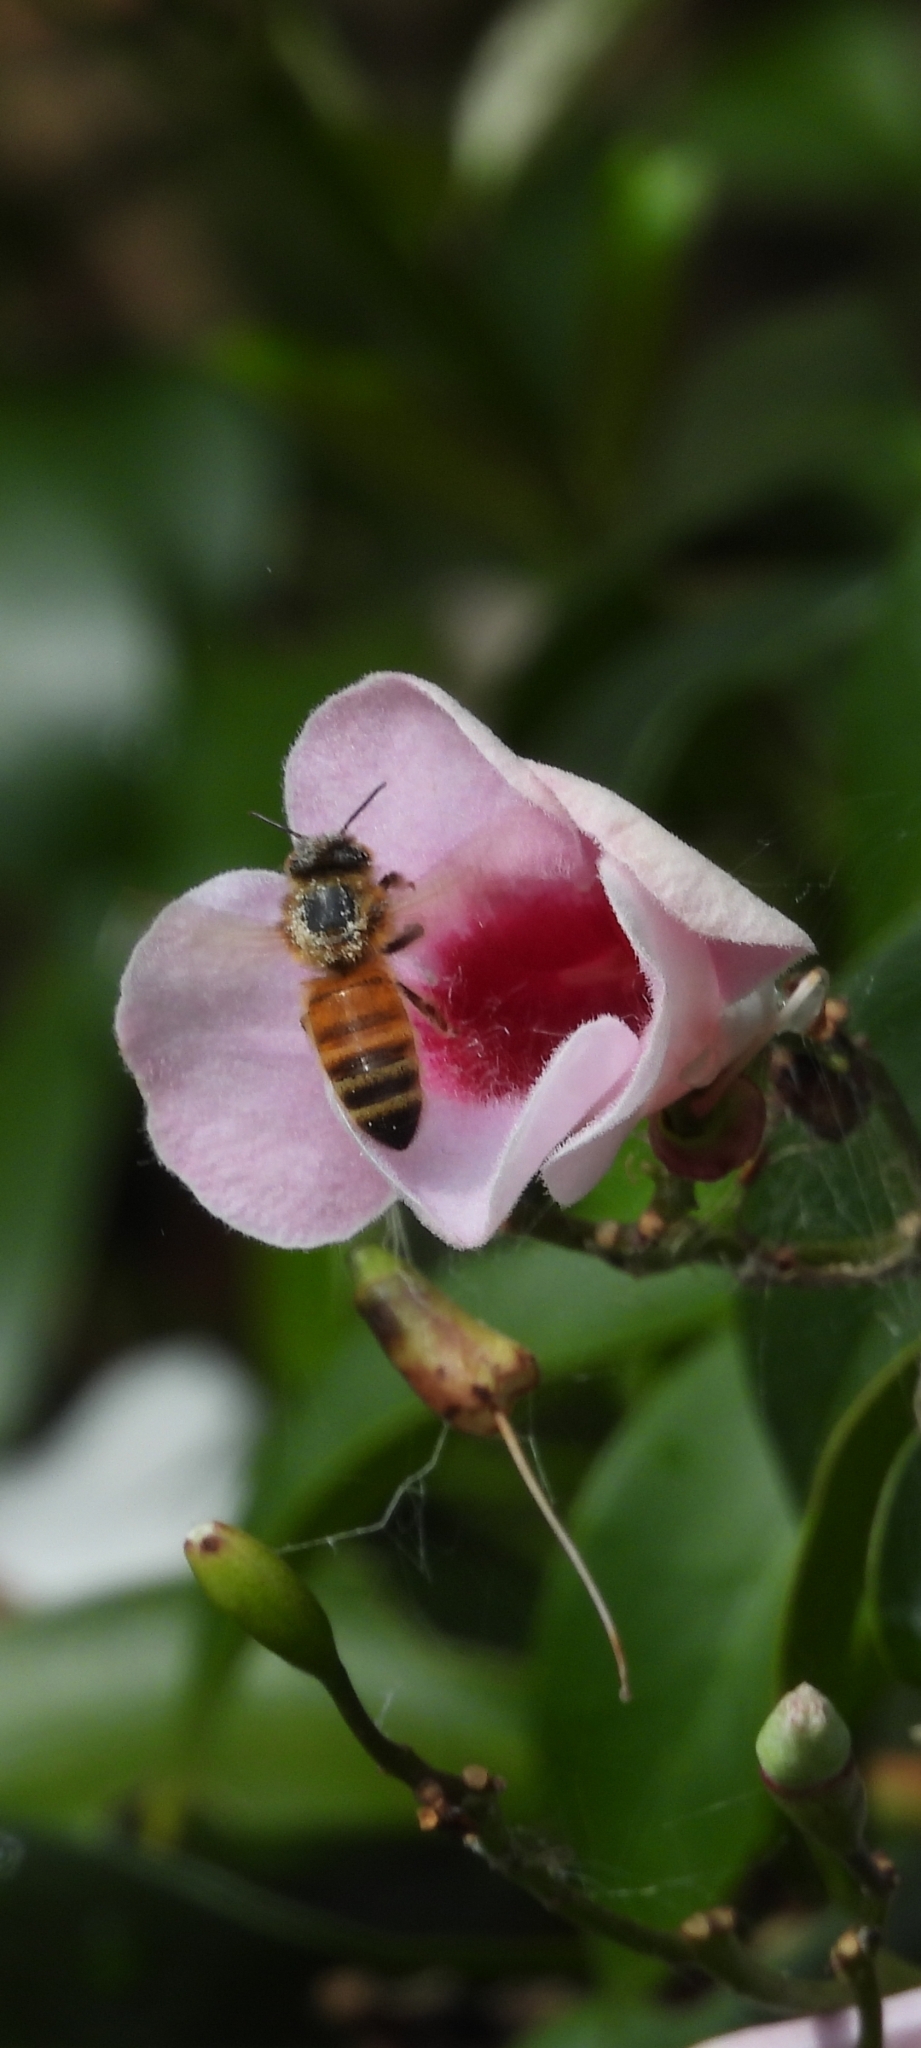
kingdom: Animalia
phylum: Arthropoda
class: Insecta
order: Hymenoptera
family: Apidae
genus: Apis
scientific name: Apis mellifera
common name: Honey bee
